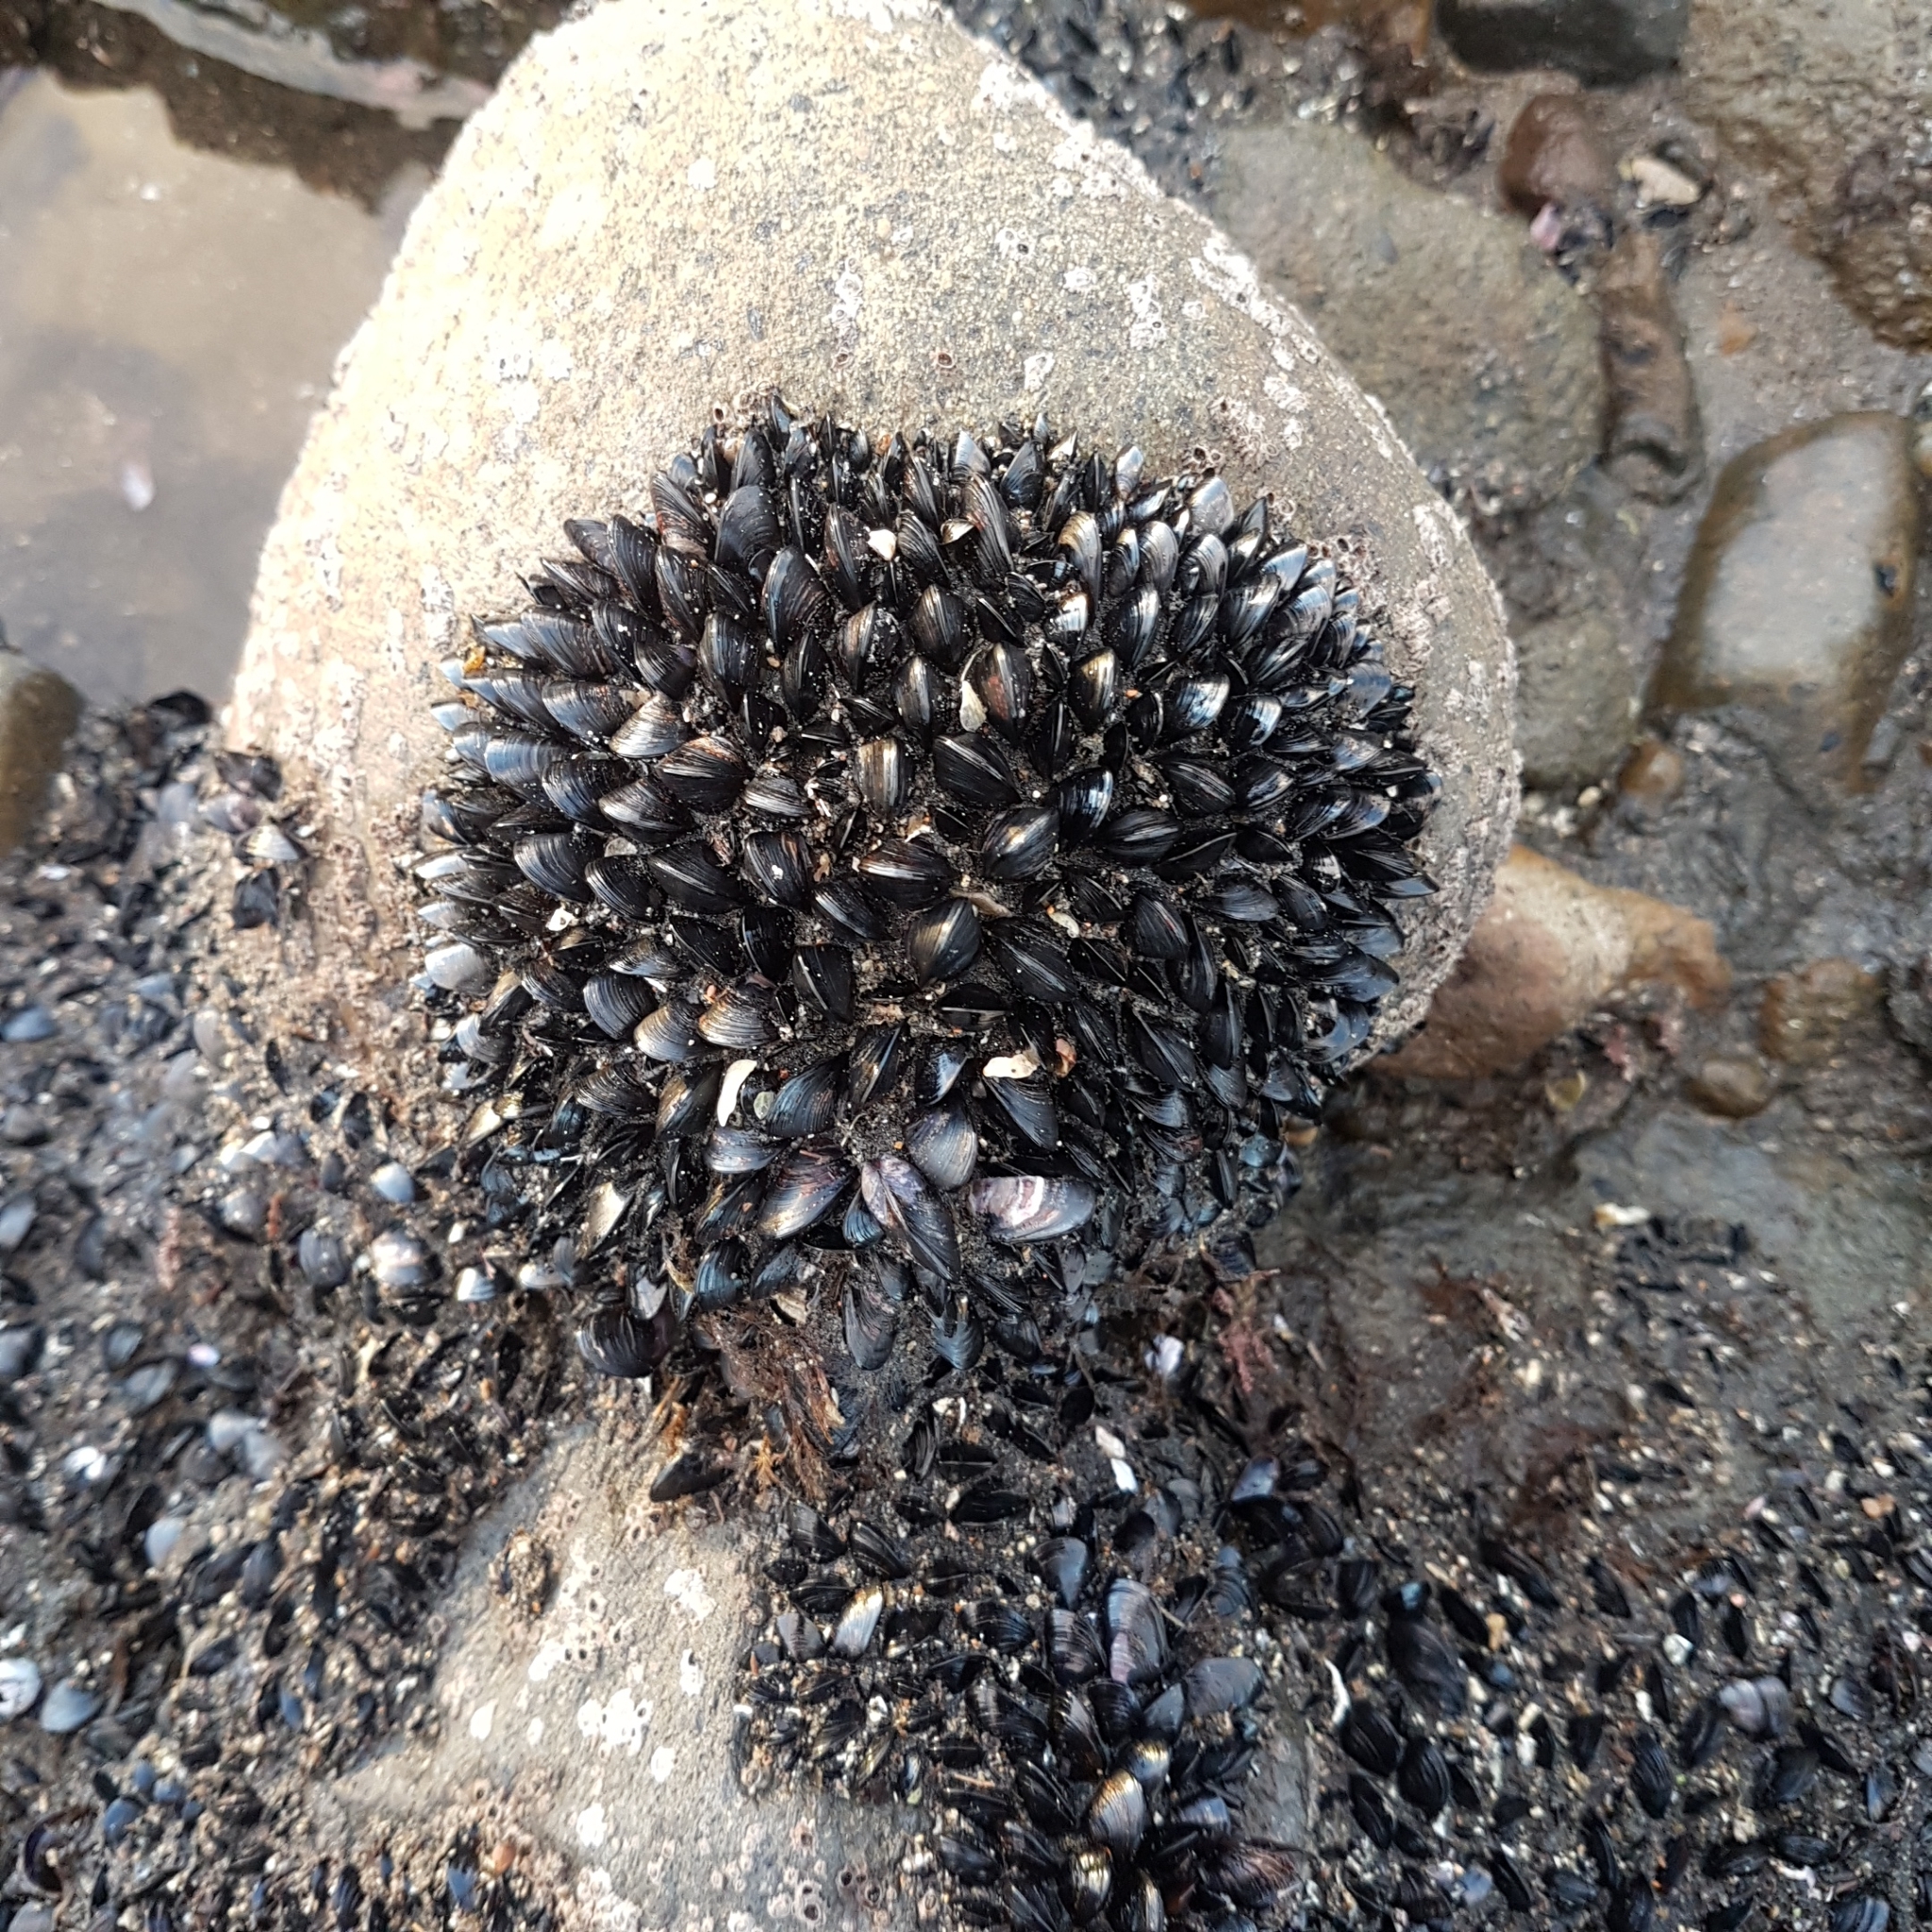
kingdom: Animalia
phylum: Mollusca
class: Bivalvia
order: Mytilida
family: Mytilidae
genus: Xenostrobus
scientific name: Xenostrobus neozelanicus
